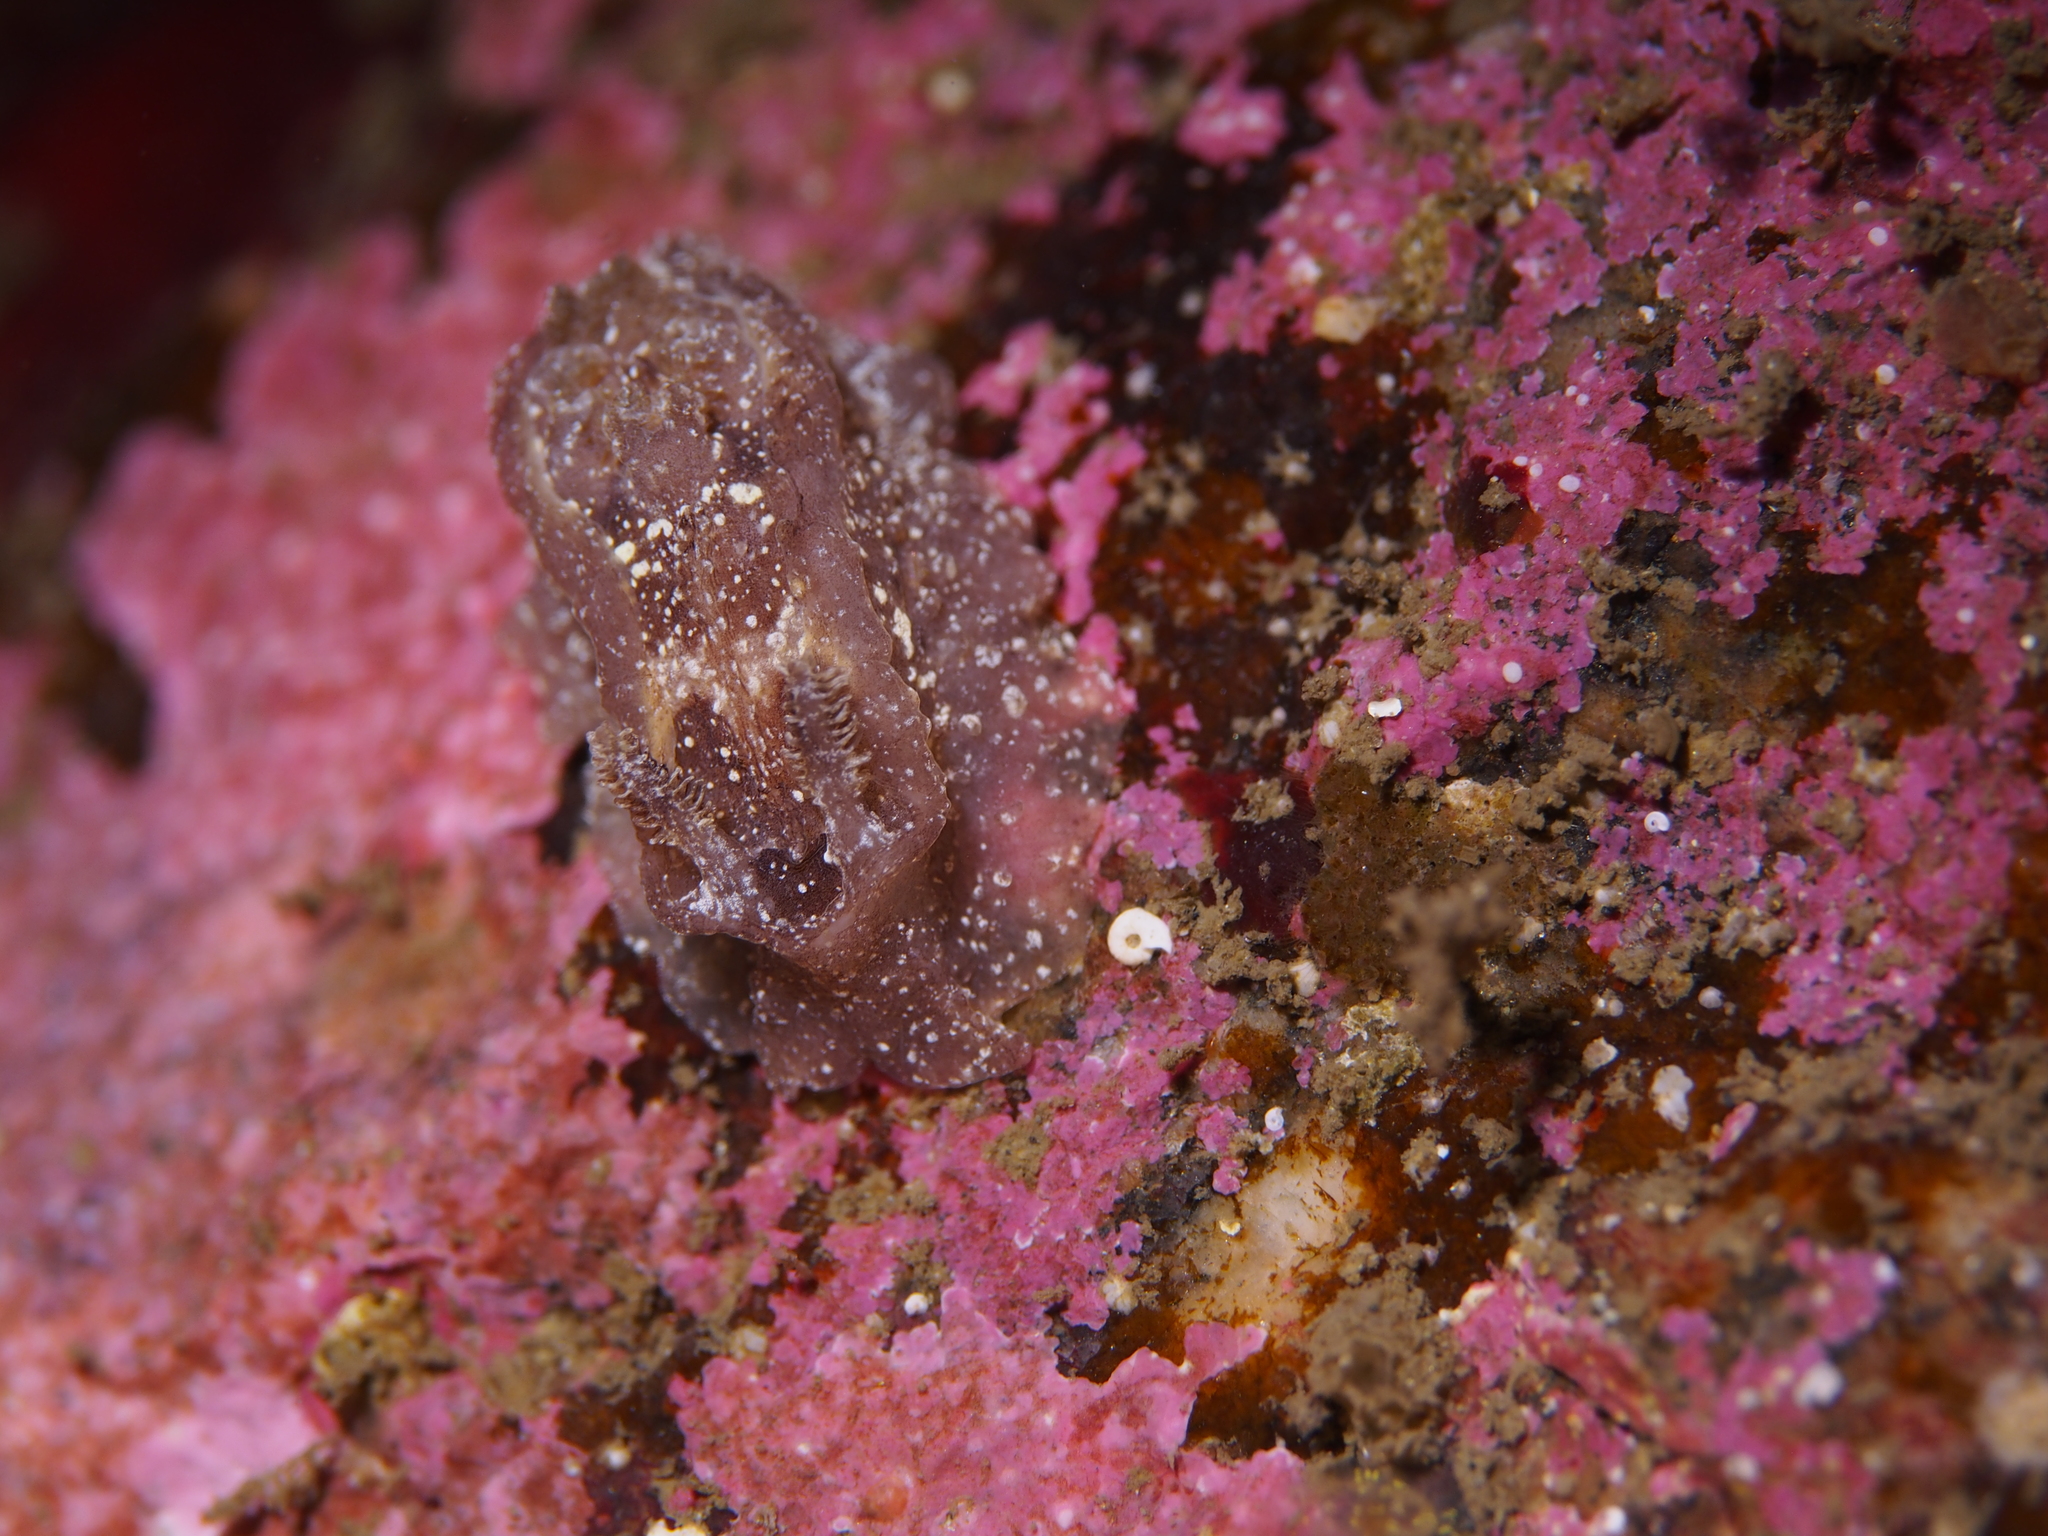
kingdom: Animalia
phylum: Mollusca
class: Gastropoda
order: Nudibranchia
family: Goniodorididae
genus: Pelagella
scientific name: Pelagella castanea
